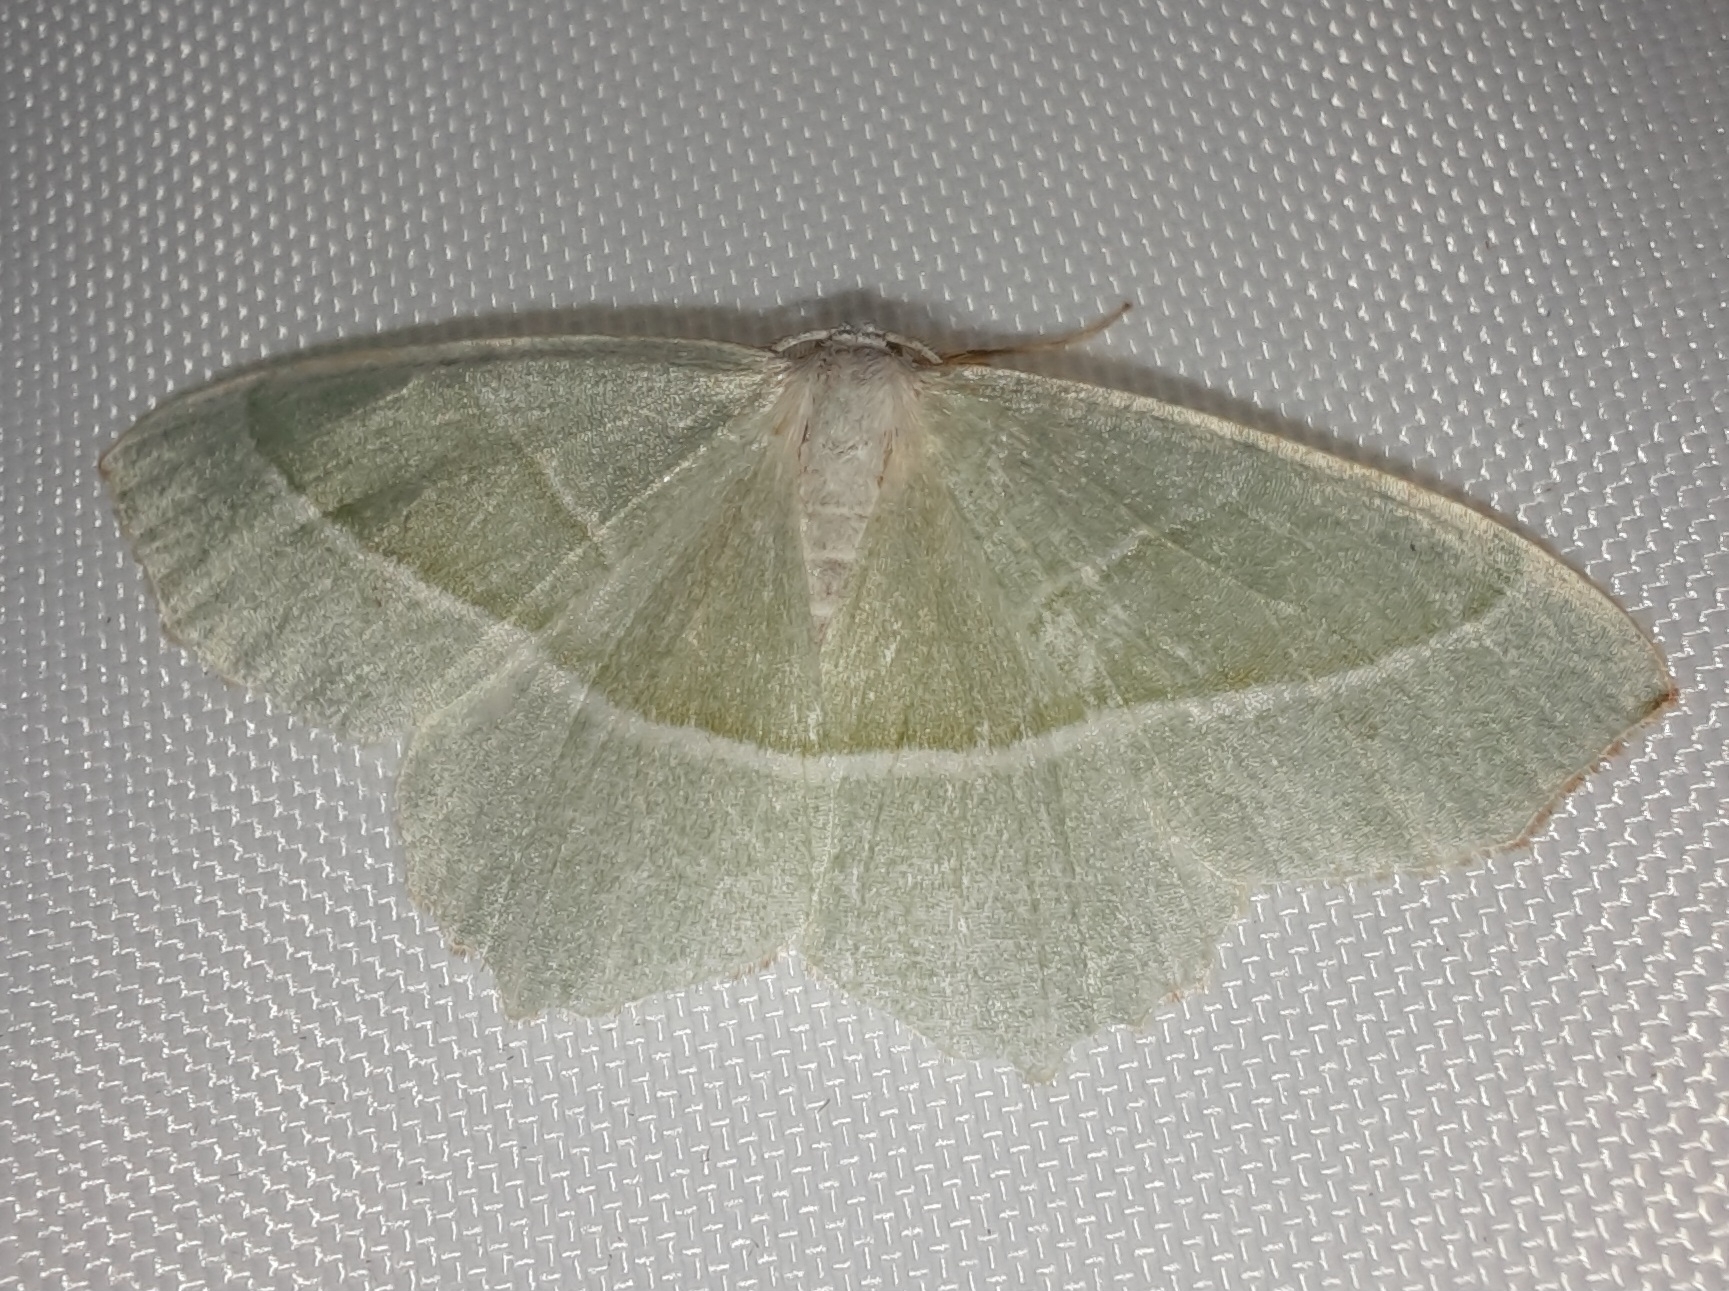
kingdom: Animalia
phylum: Arthropoda
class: Insecta
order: Lepidoptera
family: Geometridae
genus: Campaea
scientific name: Campaea margaritaria
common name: Light emerald
